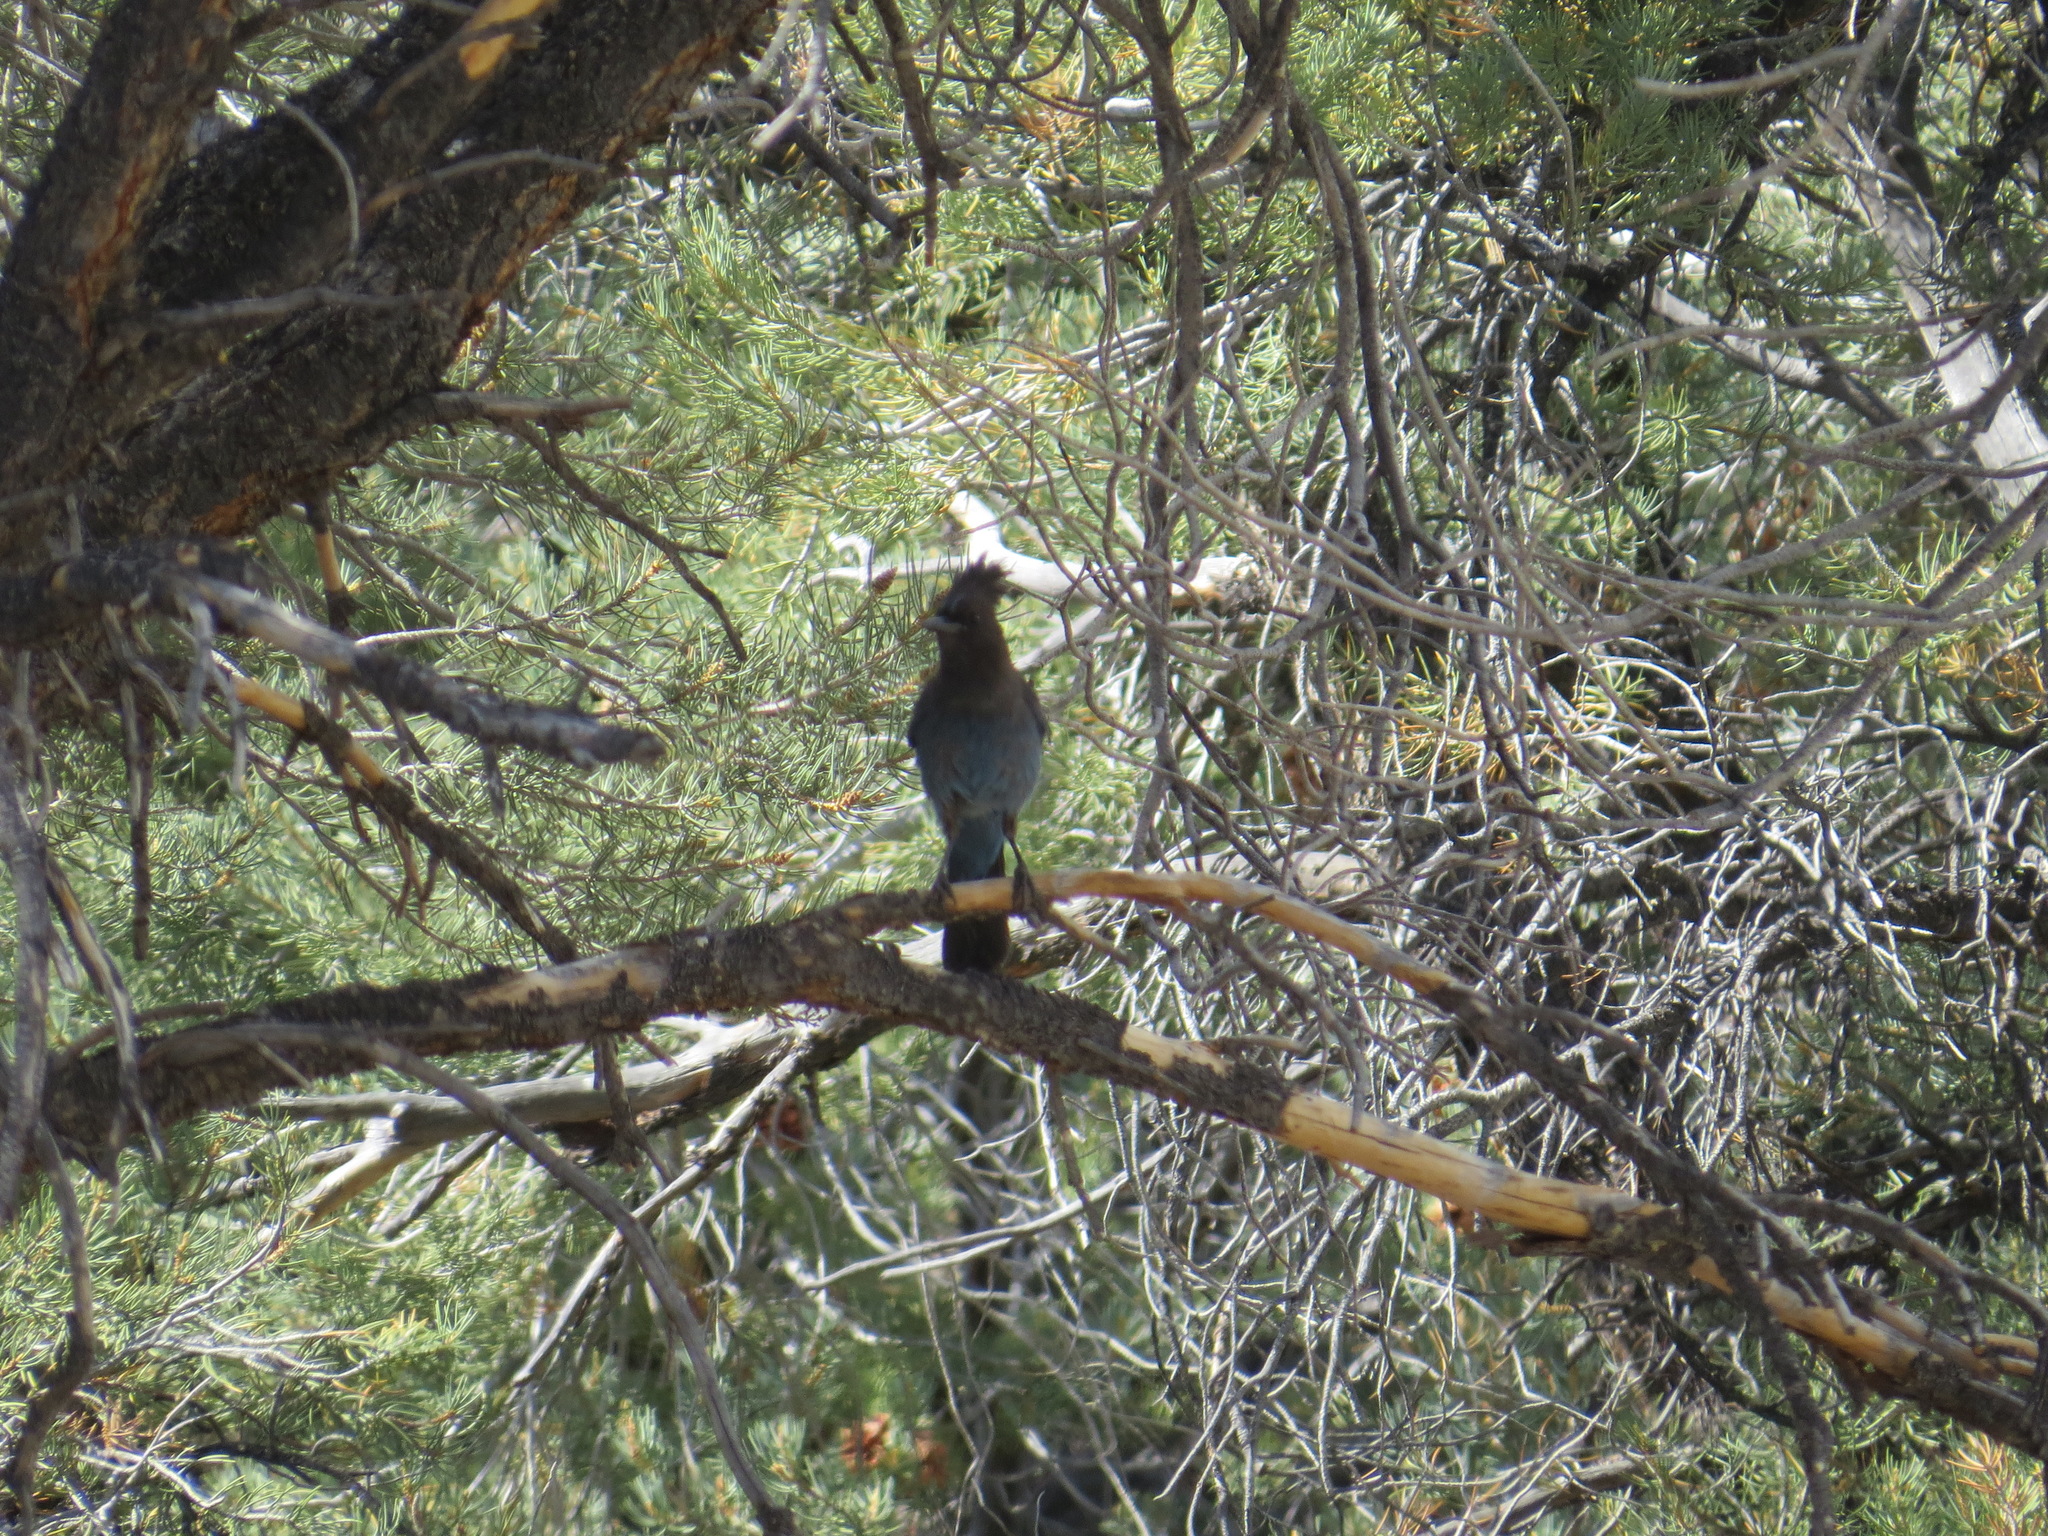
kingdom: Animalia
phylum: Chordata
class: Aves
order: Passeriformes
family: Corvidae
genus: Cyanocitta
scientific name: Cyanocitta stelleri
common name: Steller's jay
